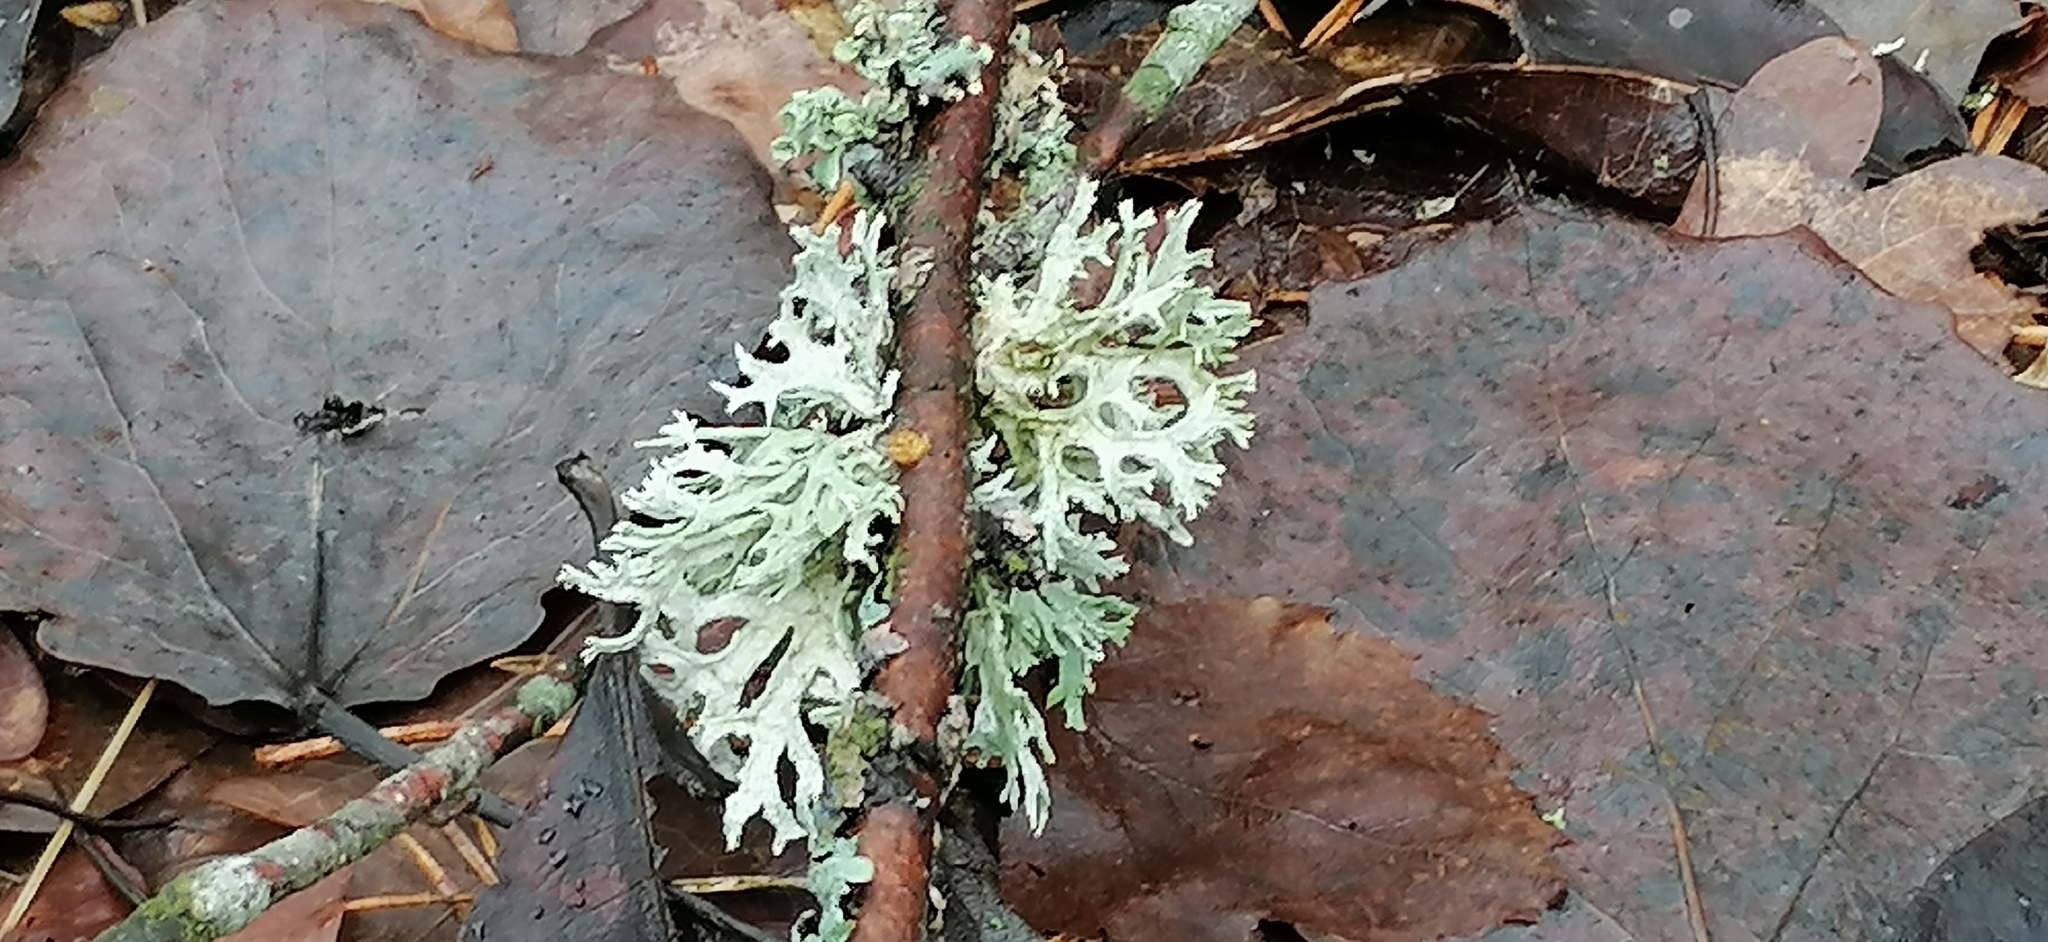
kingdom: Fungi
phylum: Ascomycota
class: Lecanoromycetes
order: Lecanorales
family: Parmeliaceae
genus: Evernia
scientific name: Evernia prunastri
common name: Oak moss
